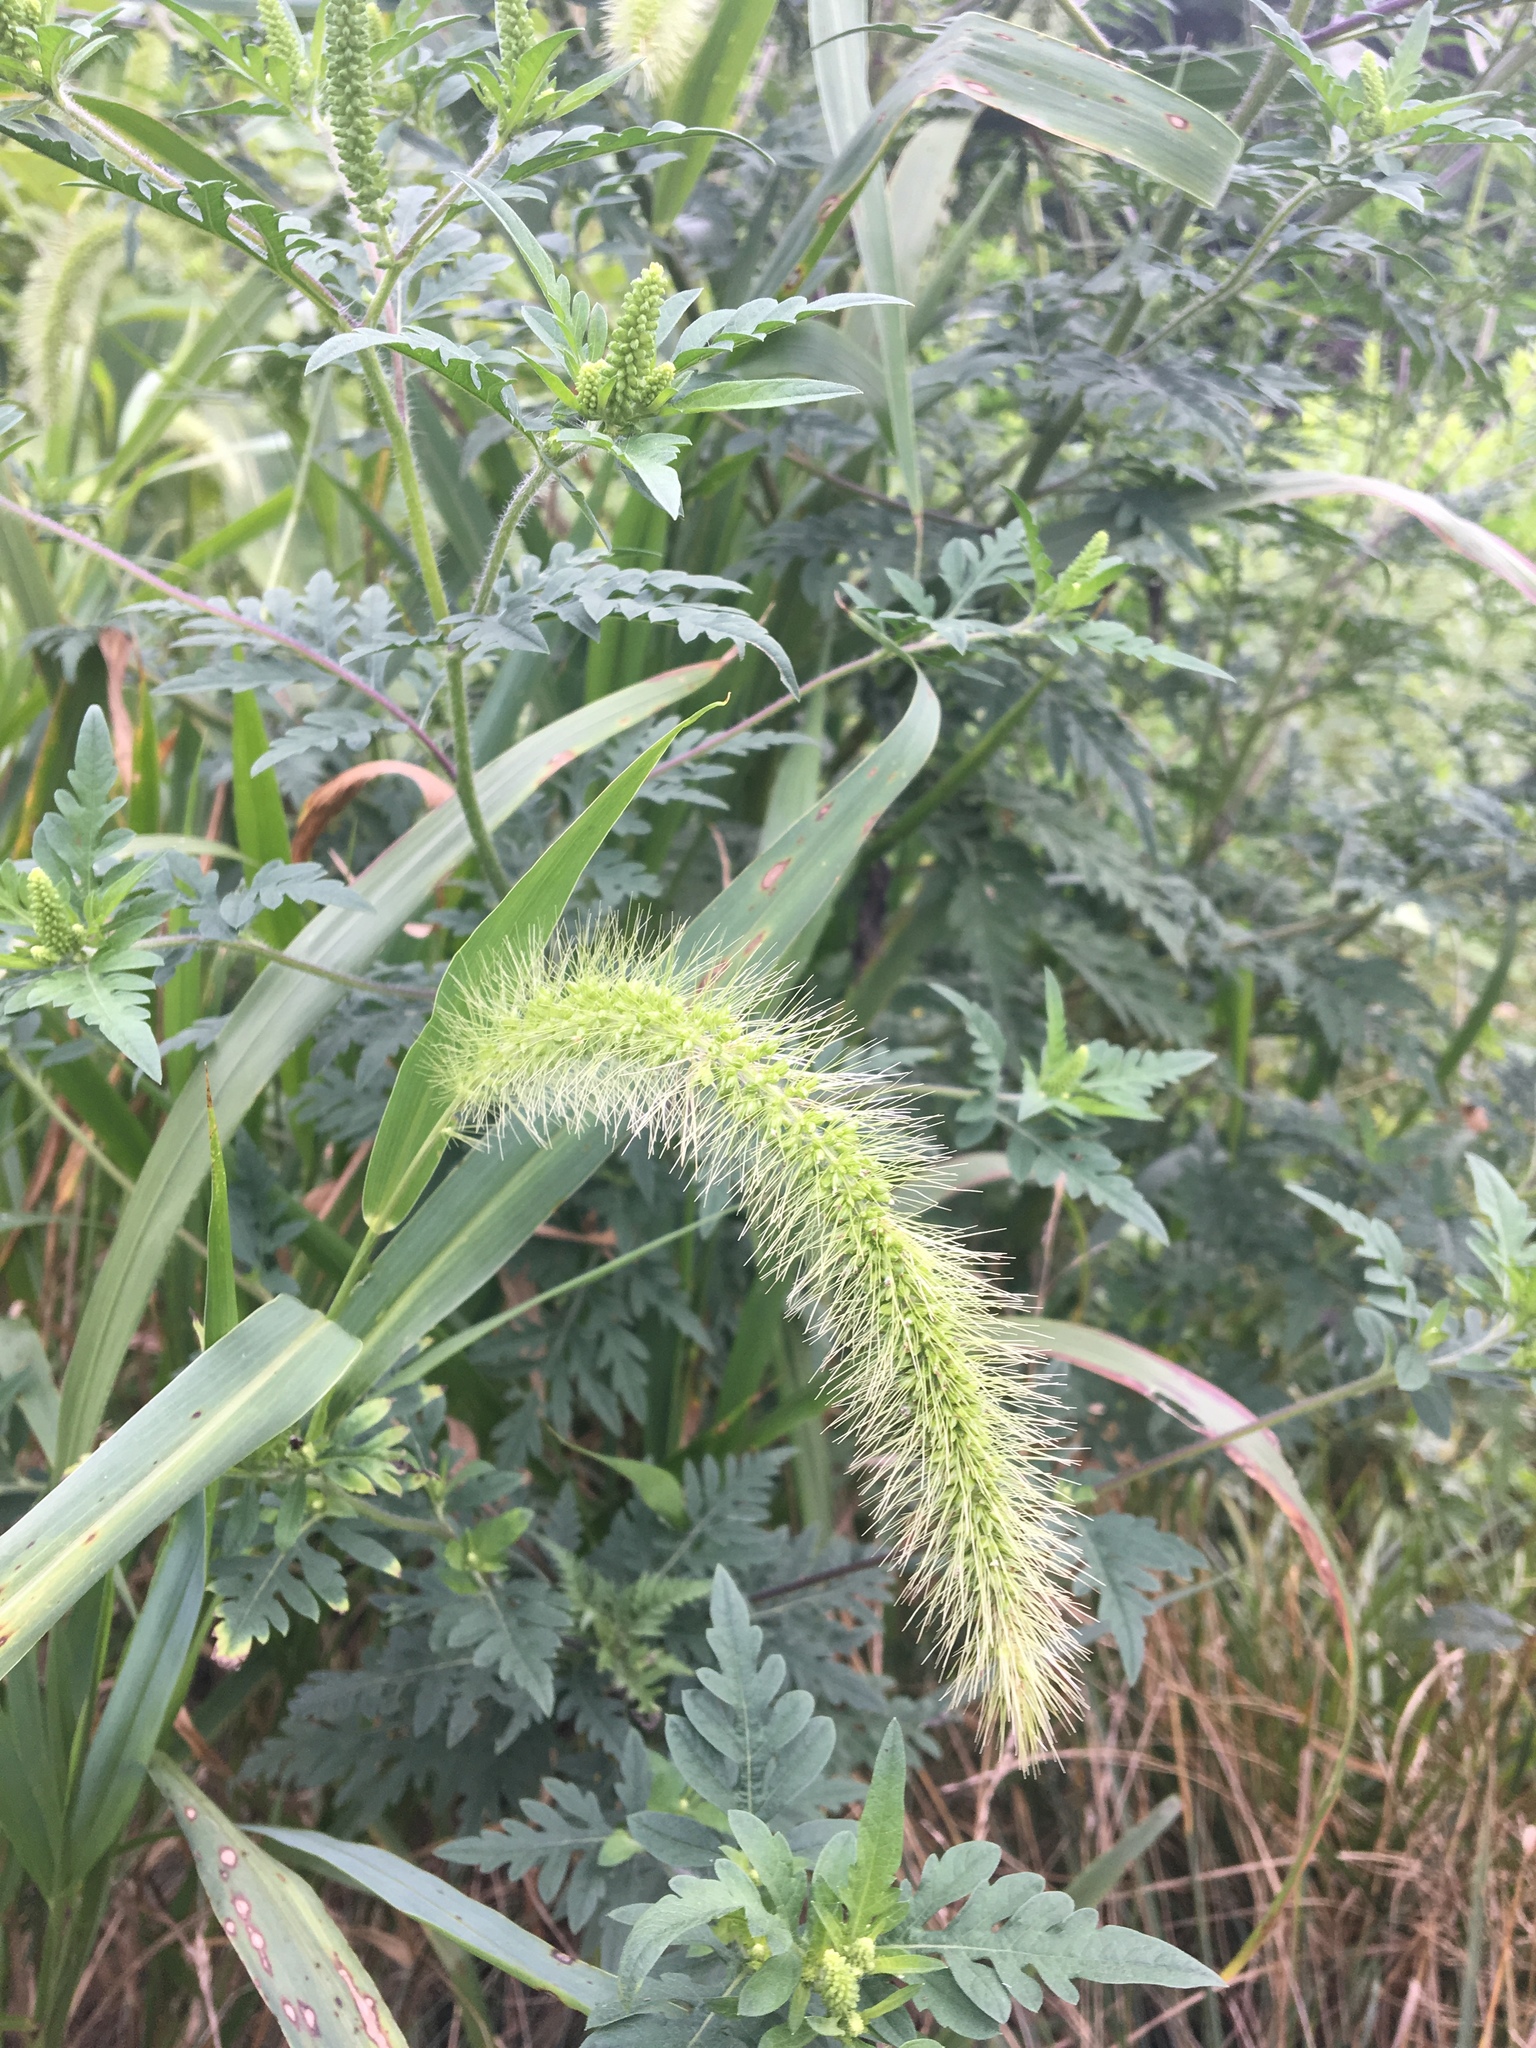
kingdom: Plantae
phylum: Tracheophyta
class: Liliopsida
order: Poales
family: Poaceae
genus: Setaria
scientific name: Setaria faberi
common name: Nodding bristle-grass
